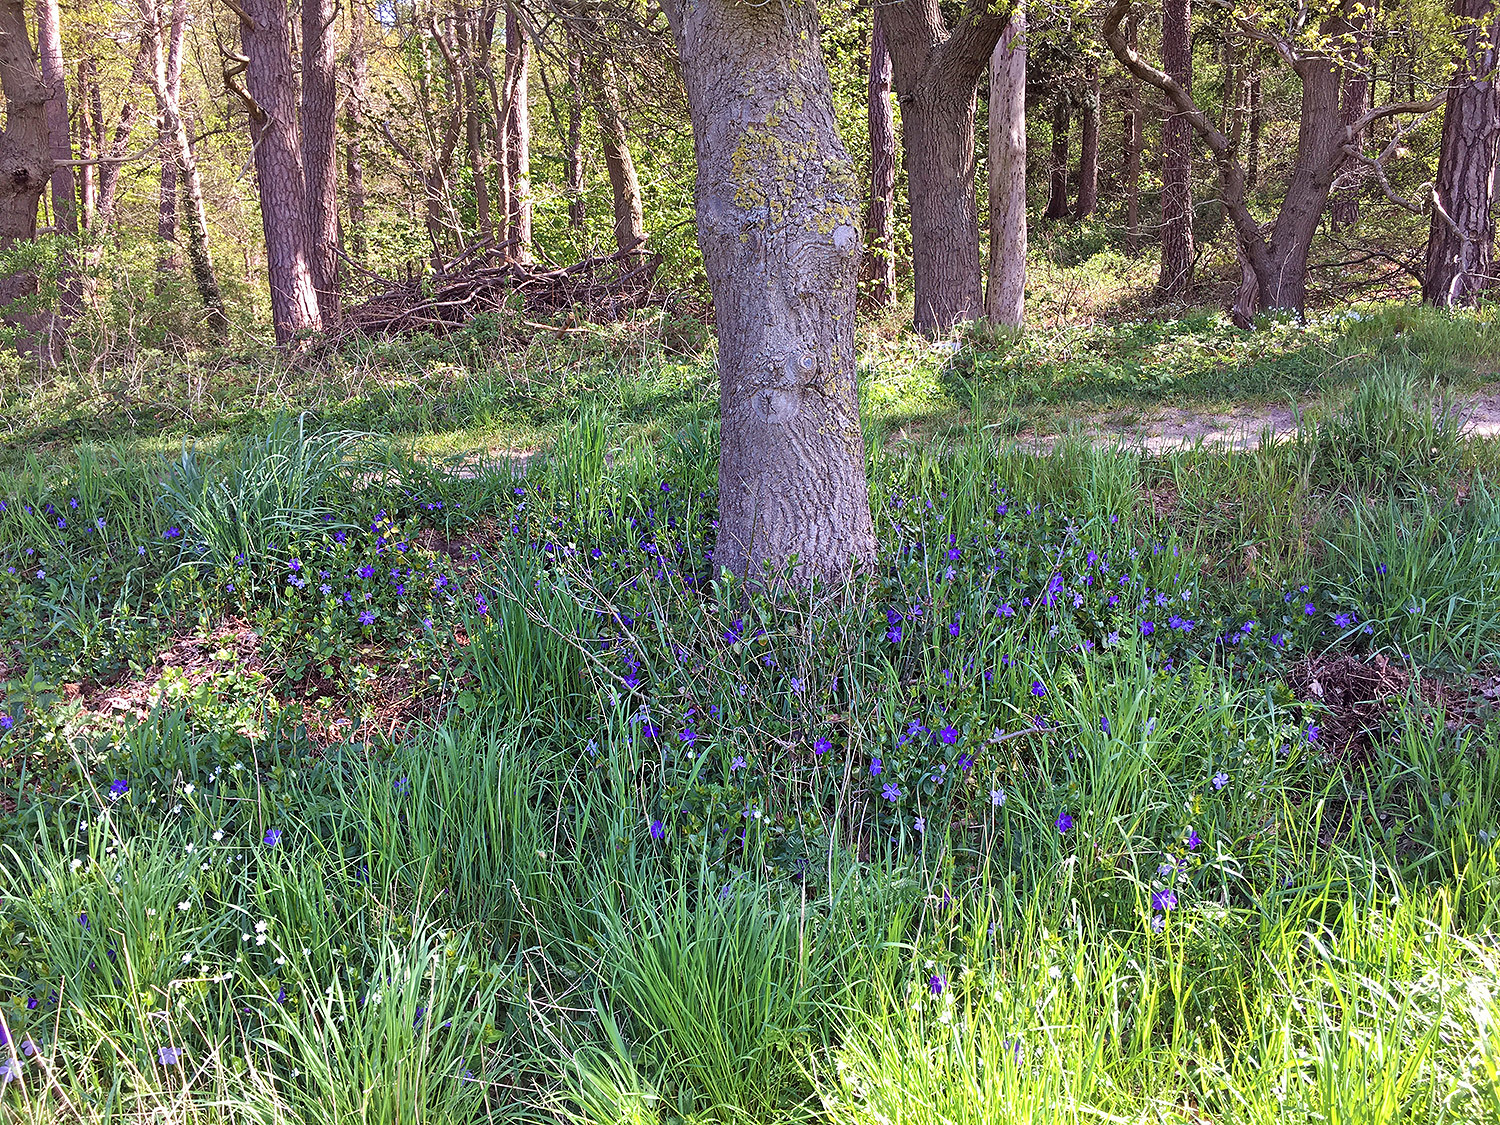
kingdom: Plantae
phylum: Tracheophyta
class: Magnoliopsida
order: Gentianales
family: Apocynaceae
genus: Vinca
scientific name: Vinca major
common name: Greater periwinkle
